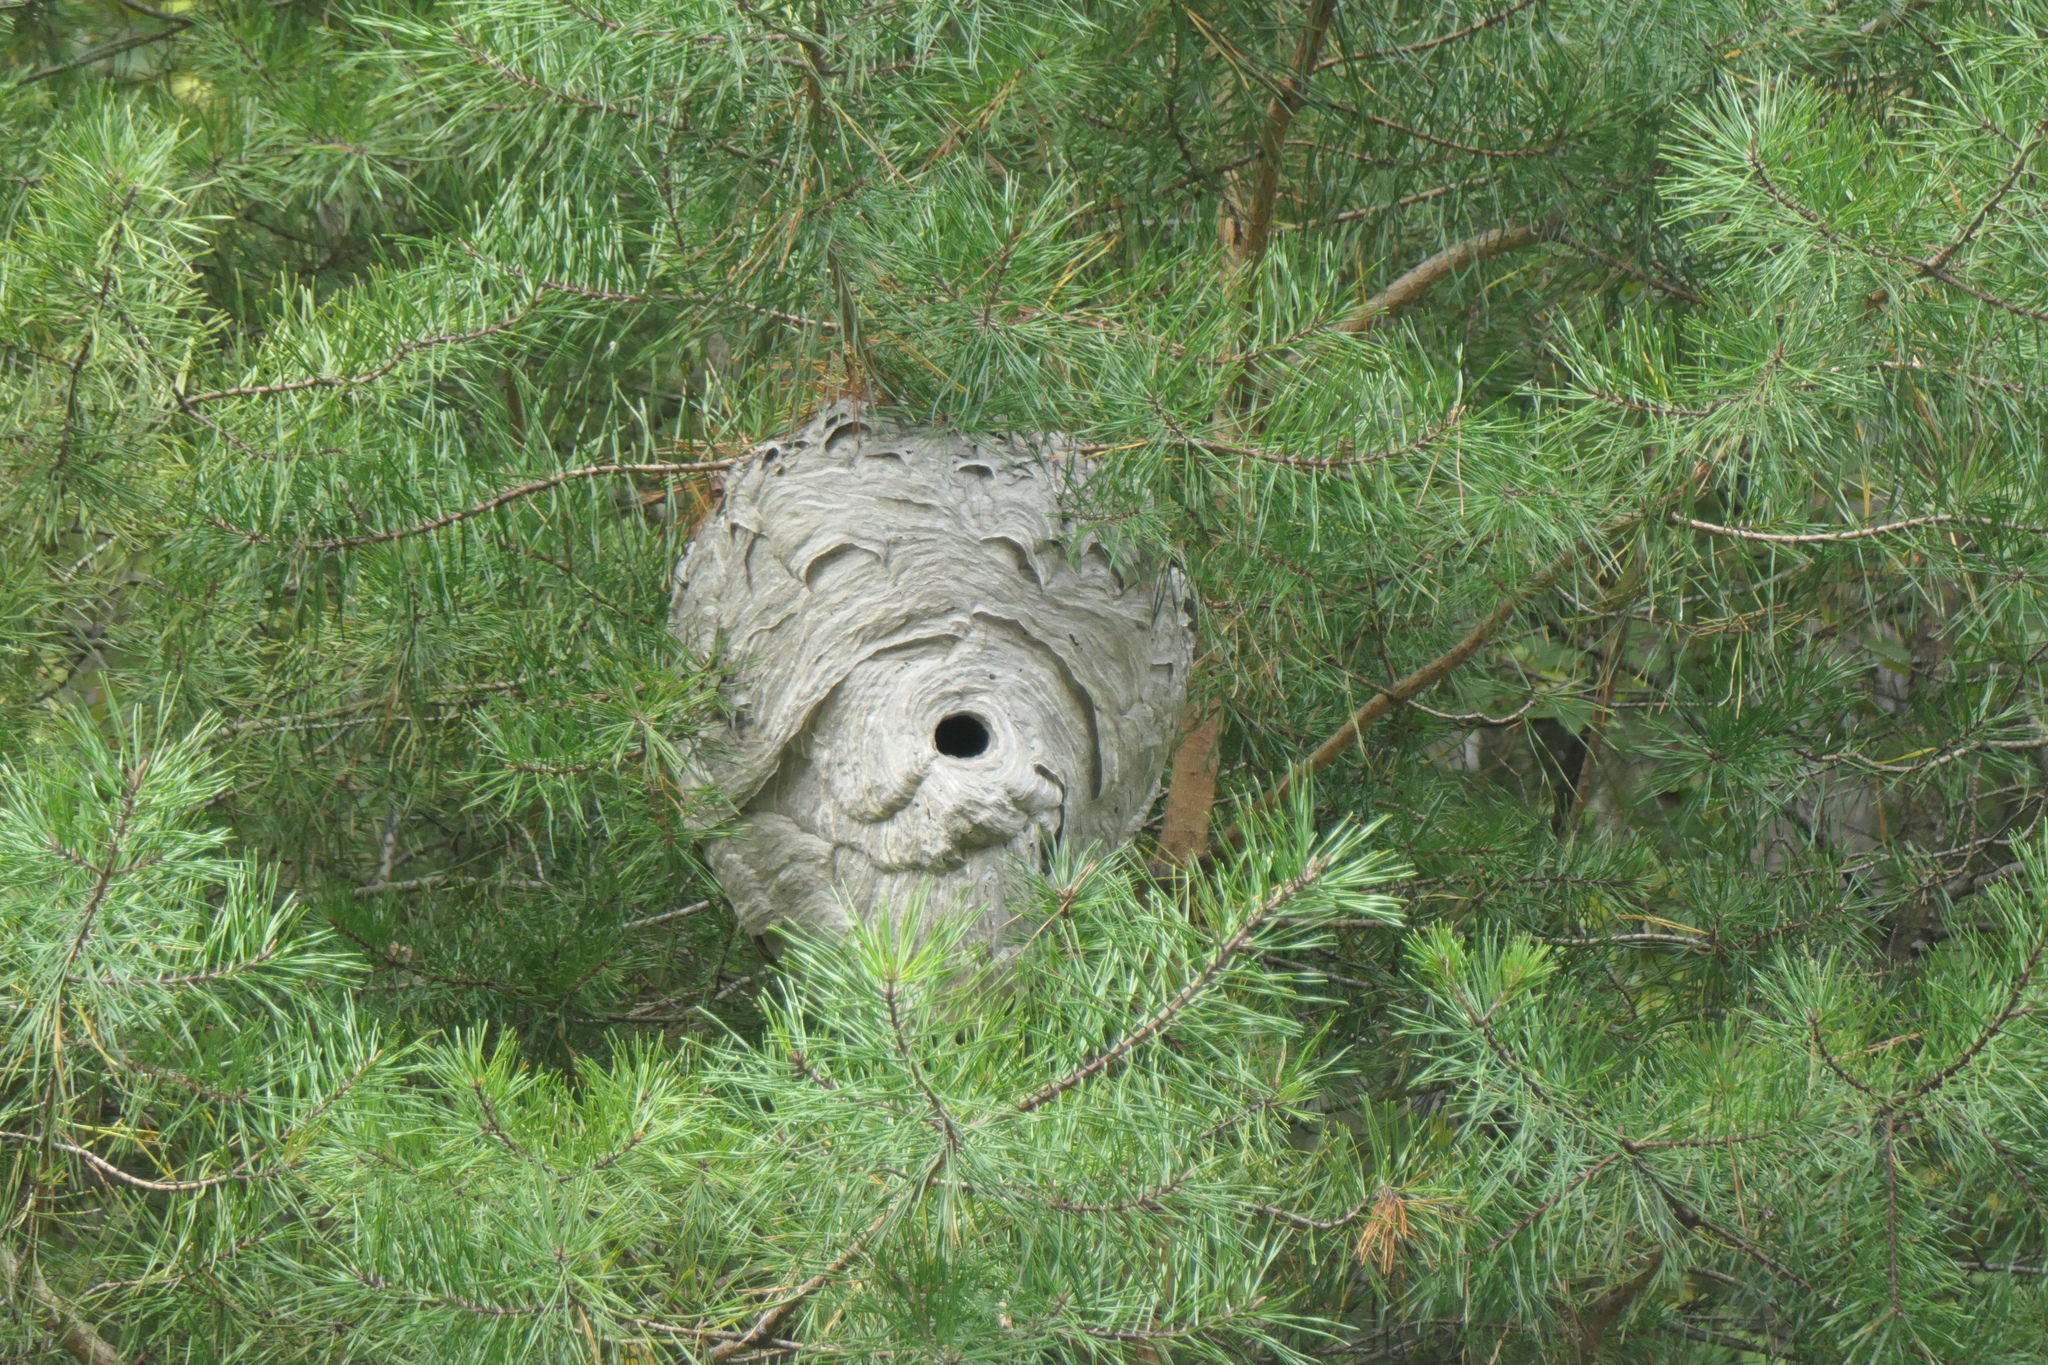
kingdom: Animalia
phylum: Arthropoda
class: Insecta
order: Hymenoptera
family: Vespidae
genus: Dolichovespula
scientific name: Dolichovespula maculata
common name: Bald-faced hornet
